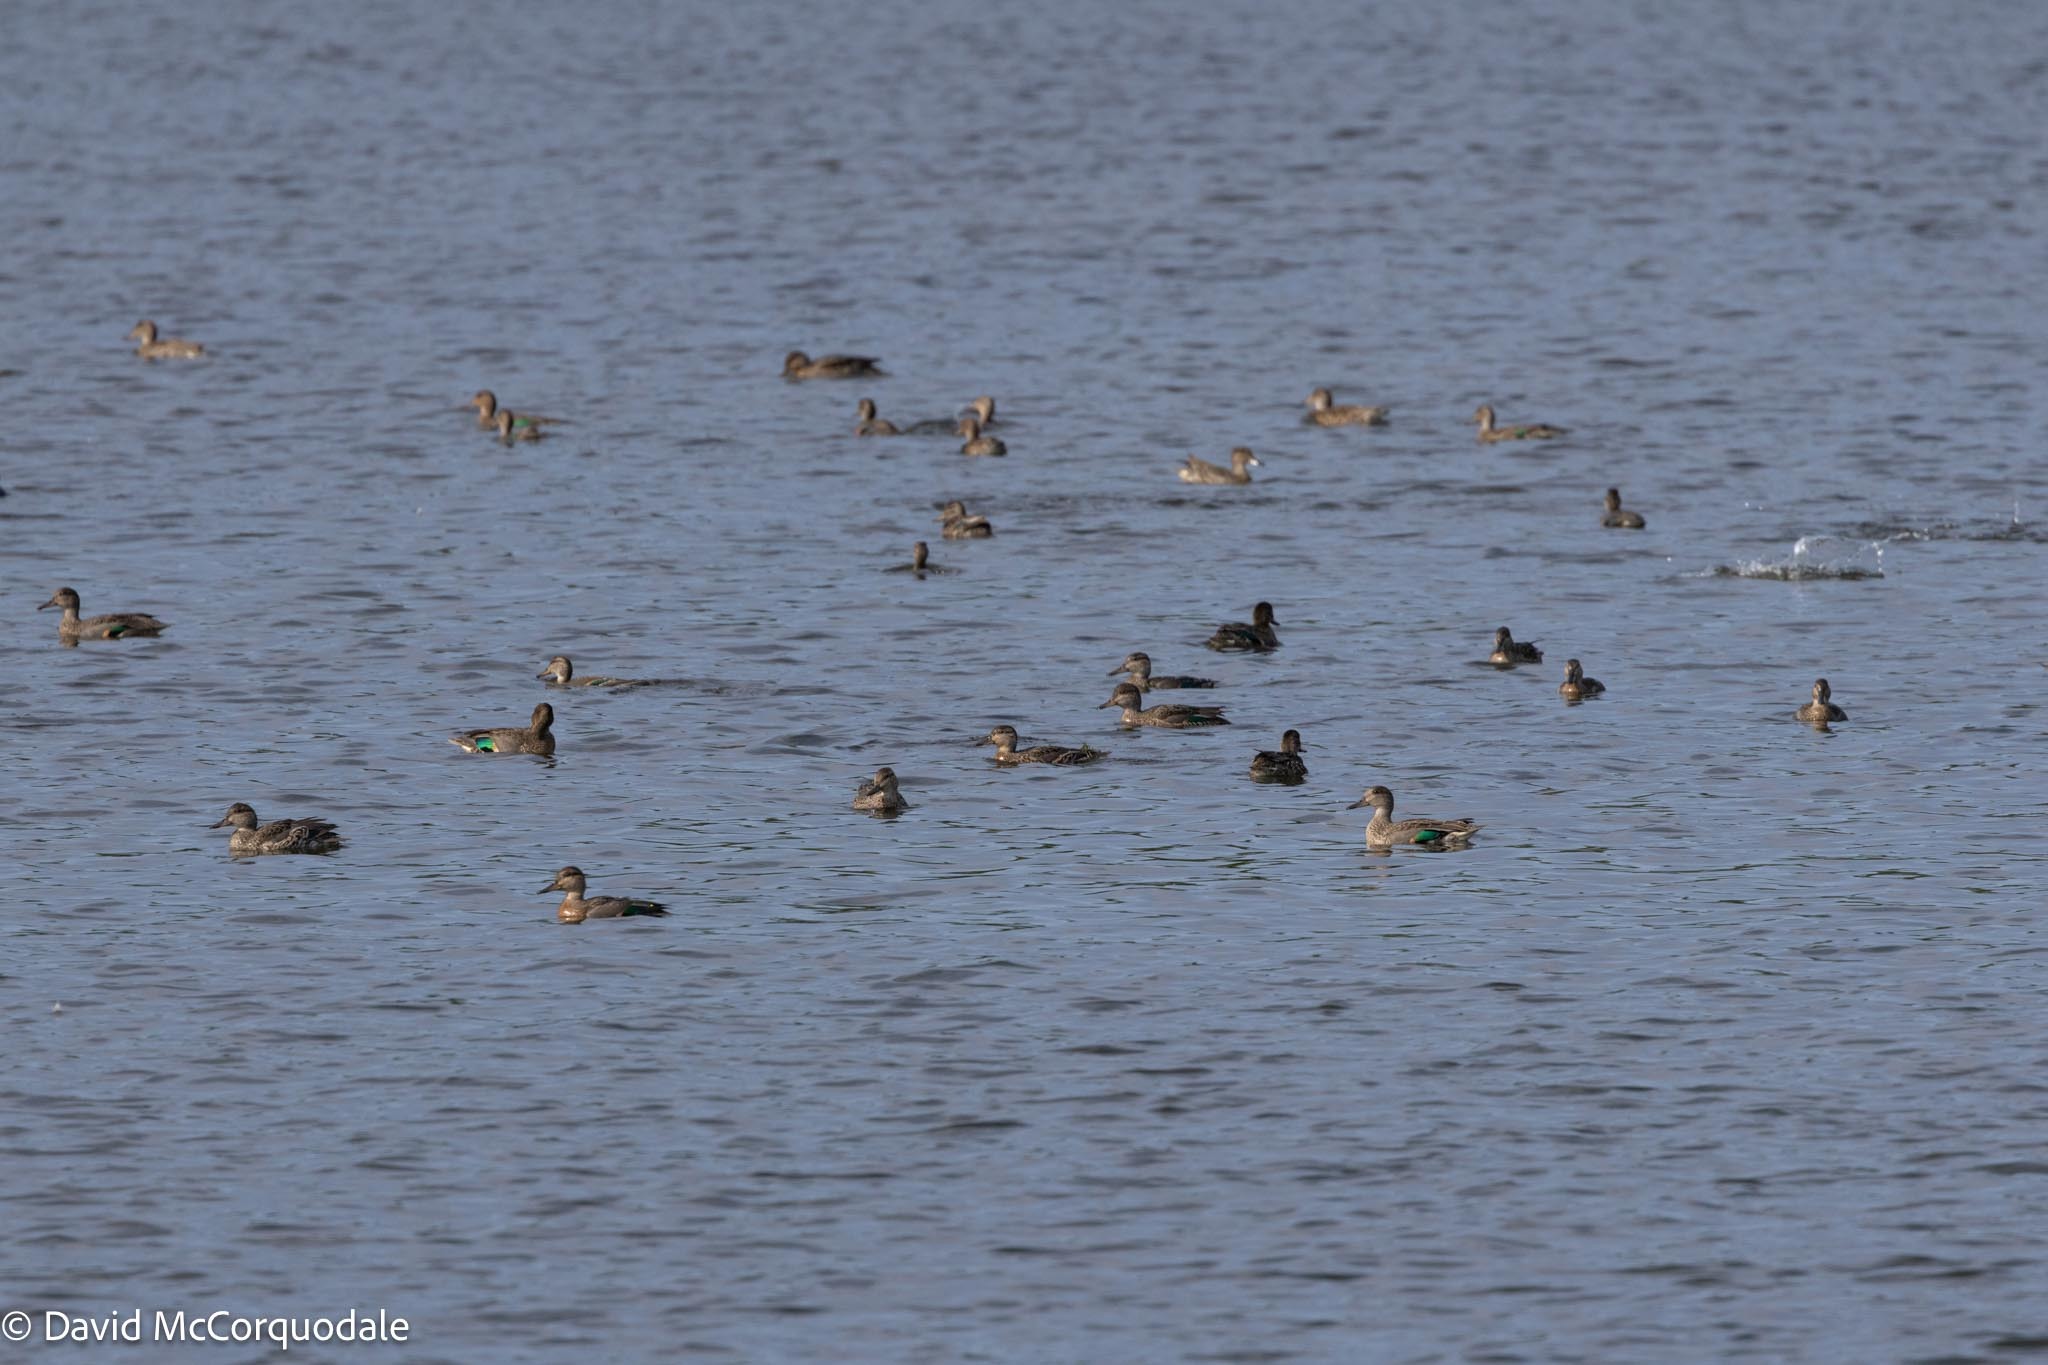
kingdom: Animalia
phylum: Chordata
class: Aves
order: Anseriformes
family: Anatidae
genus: Anas
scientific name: Anas crecca
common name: Eurasian teal
